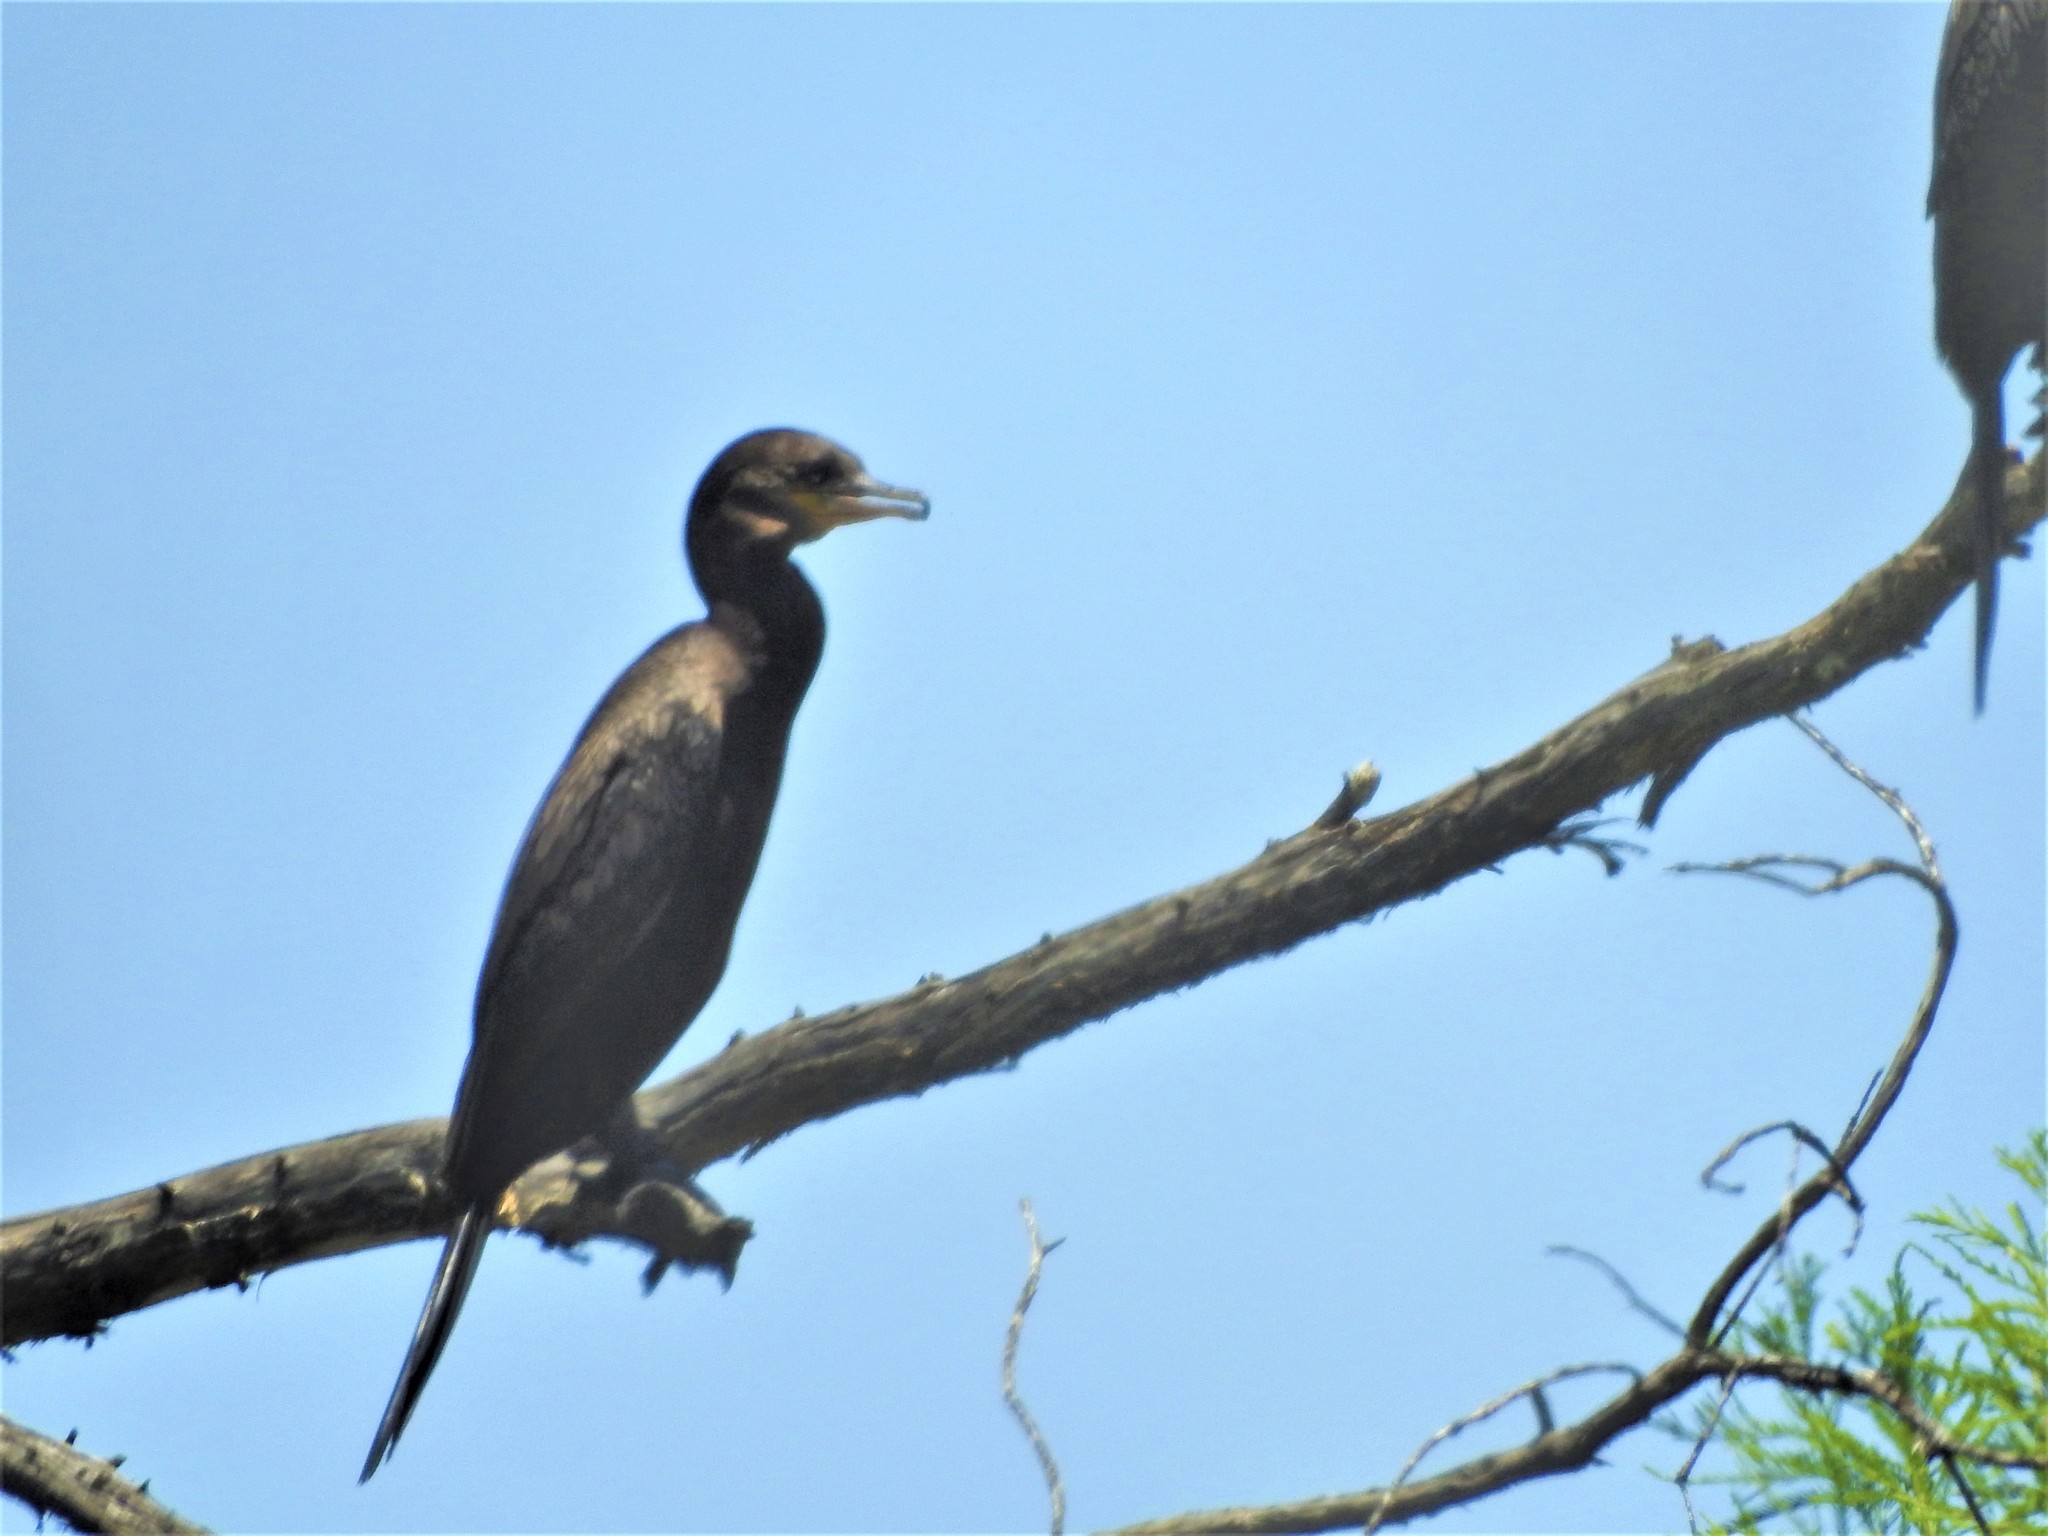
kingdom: Animalia
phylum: Chordata
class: Aves
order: Suliformes
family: Phalacrocoracidae
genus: Phalacrocorax
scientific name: Phalacrocorax brasilianus
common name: Neotropic cormorant
